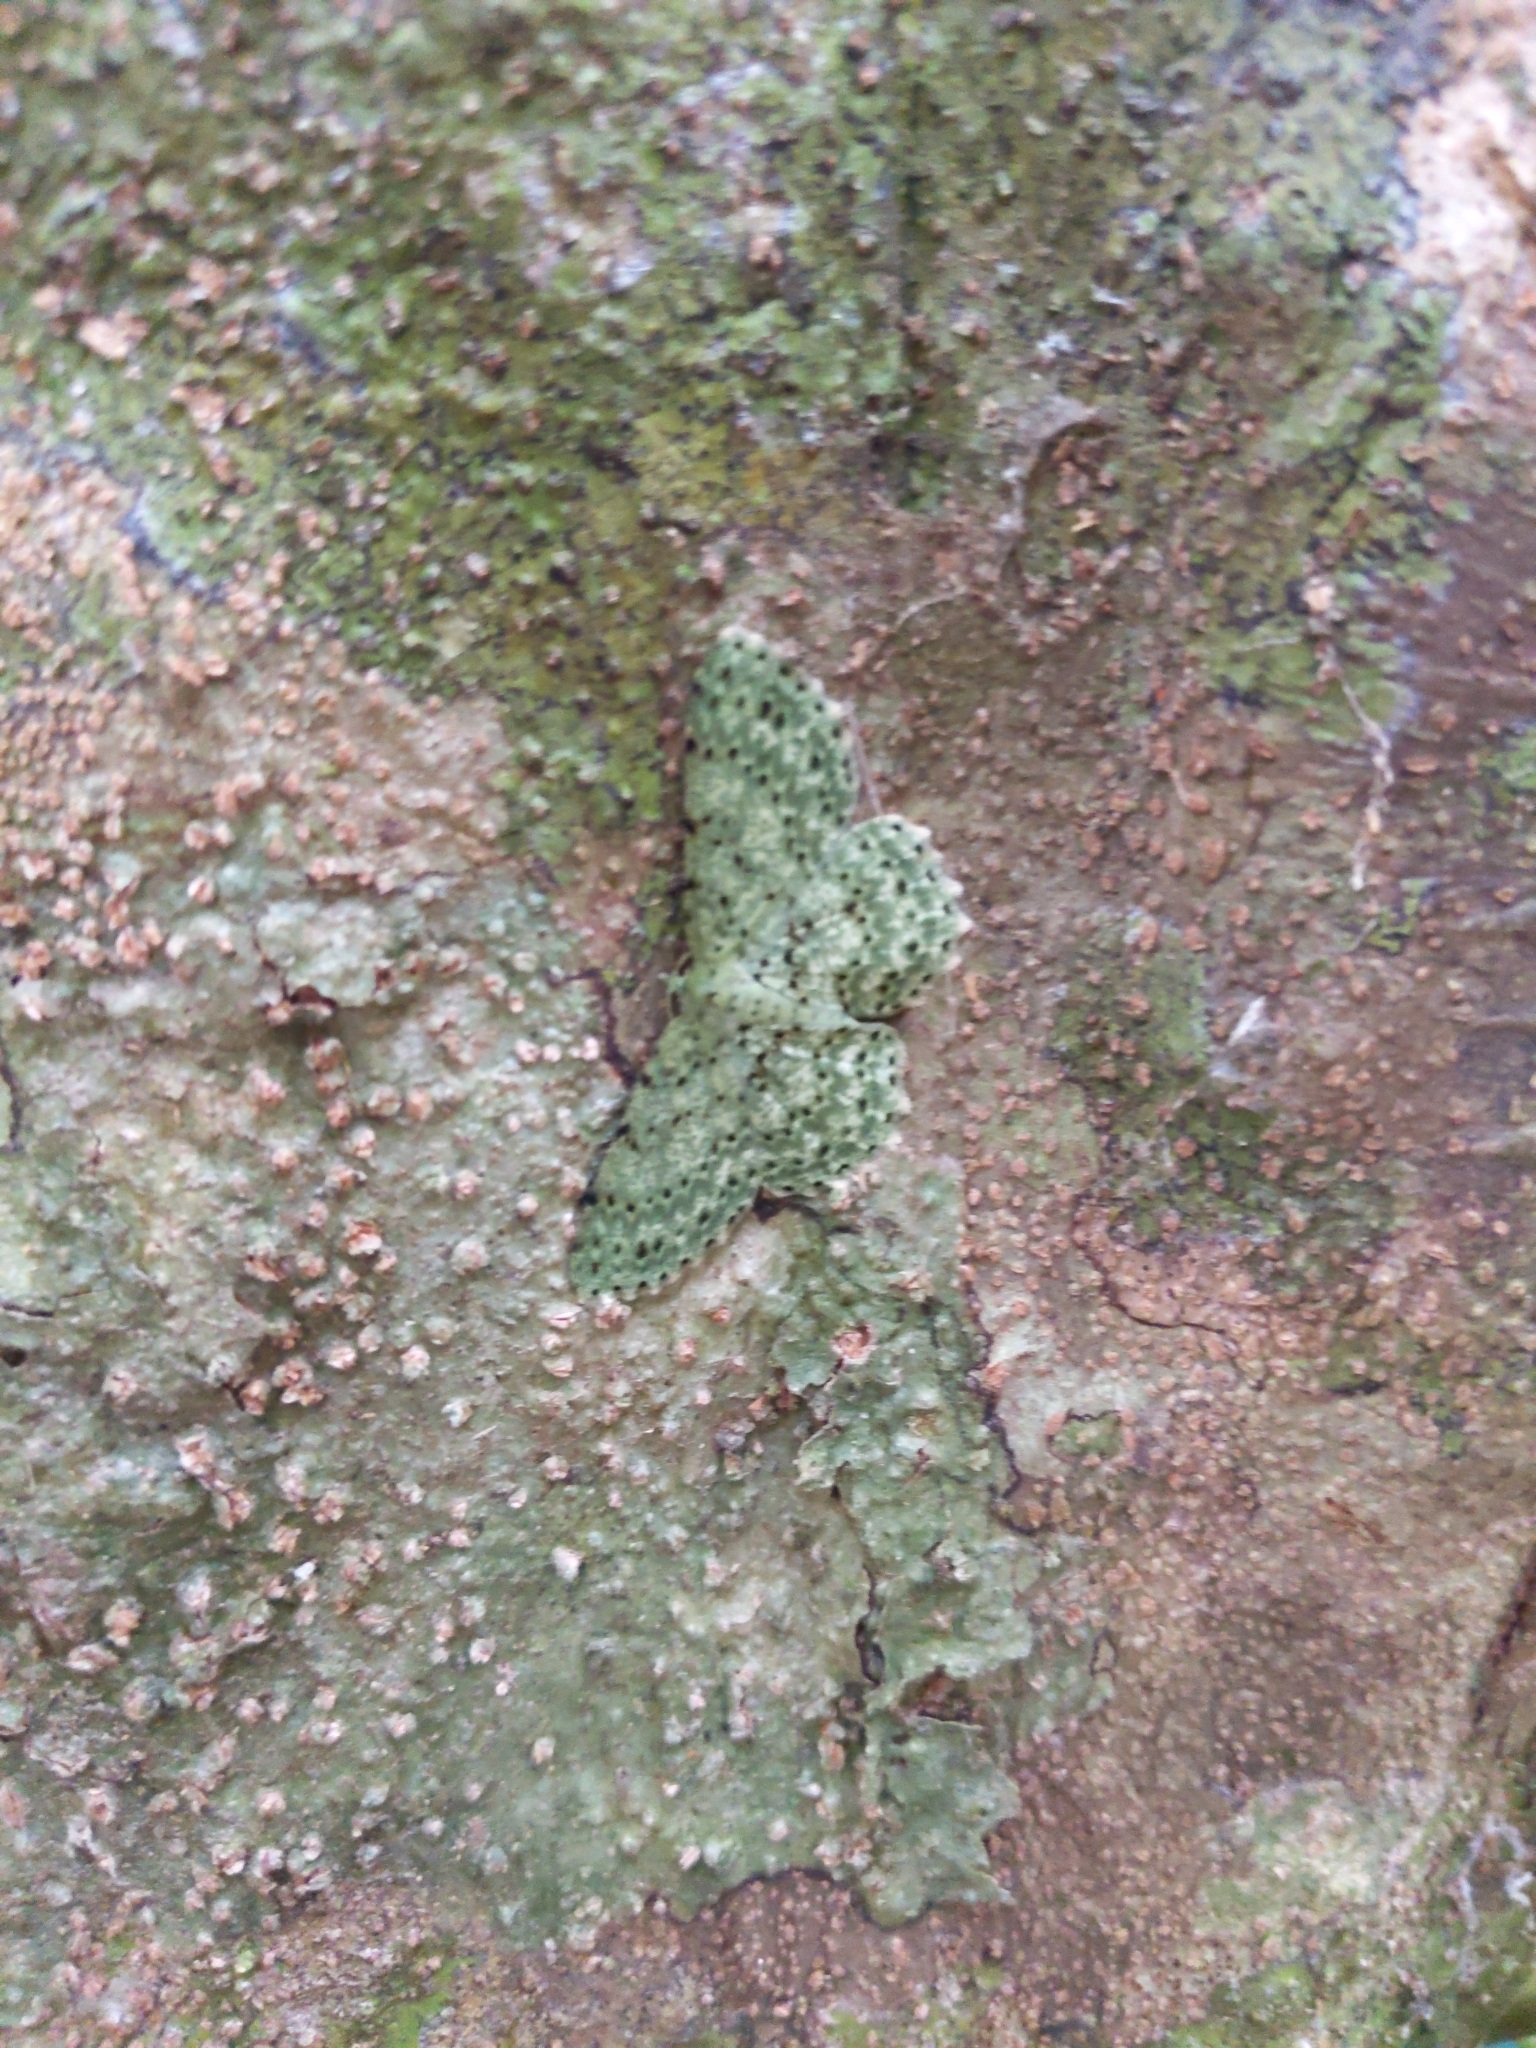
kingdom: Animalia
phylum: Arthropoda
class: Insecta
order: Lepidoptera
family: Geometridae
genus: Catoria
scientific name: Catoria delectaria
